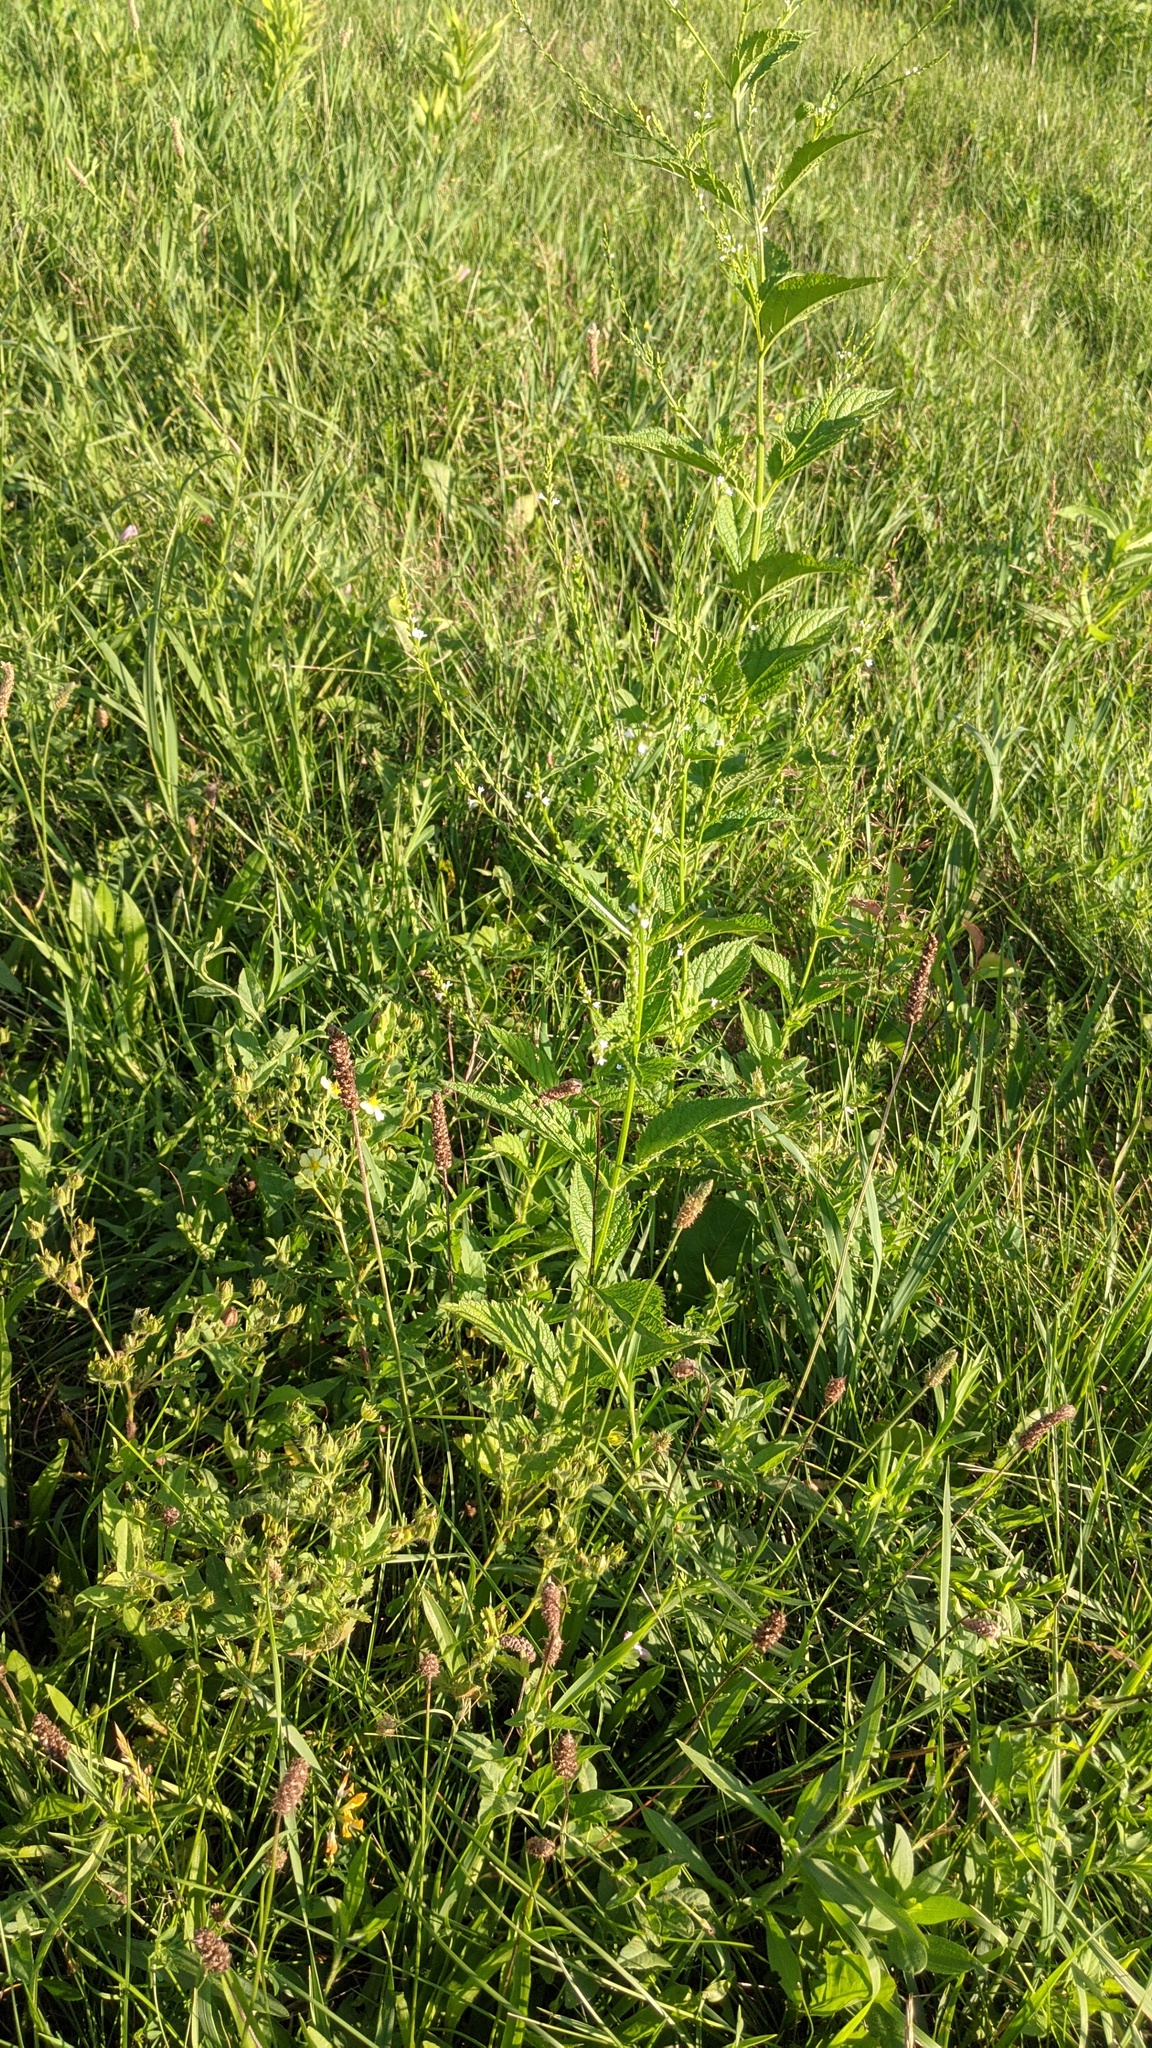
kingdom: Plantae
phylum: Tracheophyta
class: Magnoliopsida
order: Lamiales
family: Verbenaceae
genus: Verbena
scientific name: Verbena urticifolia
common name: Nettle-leaved vervain
